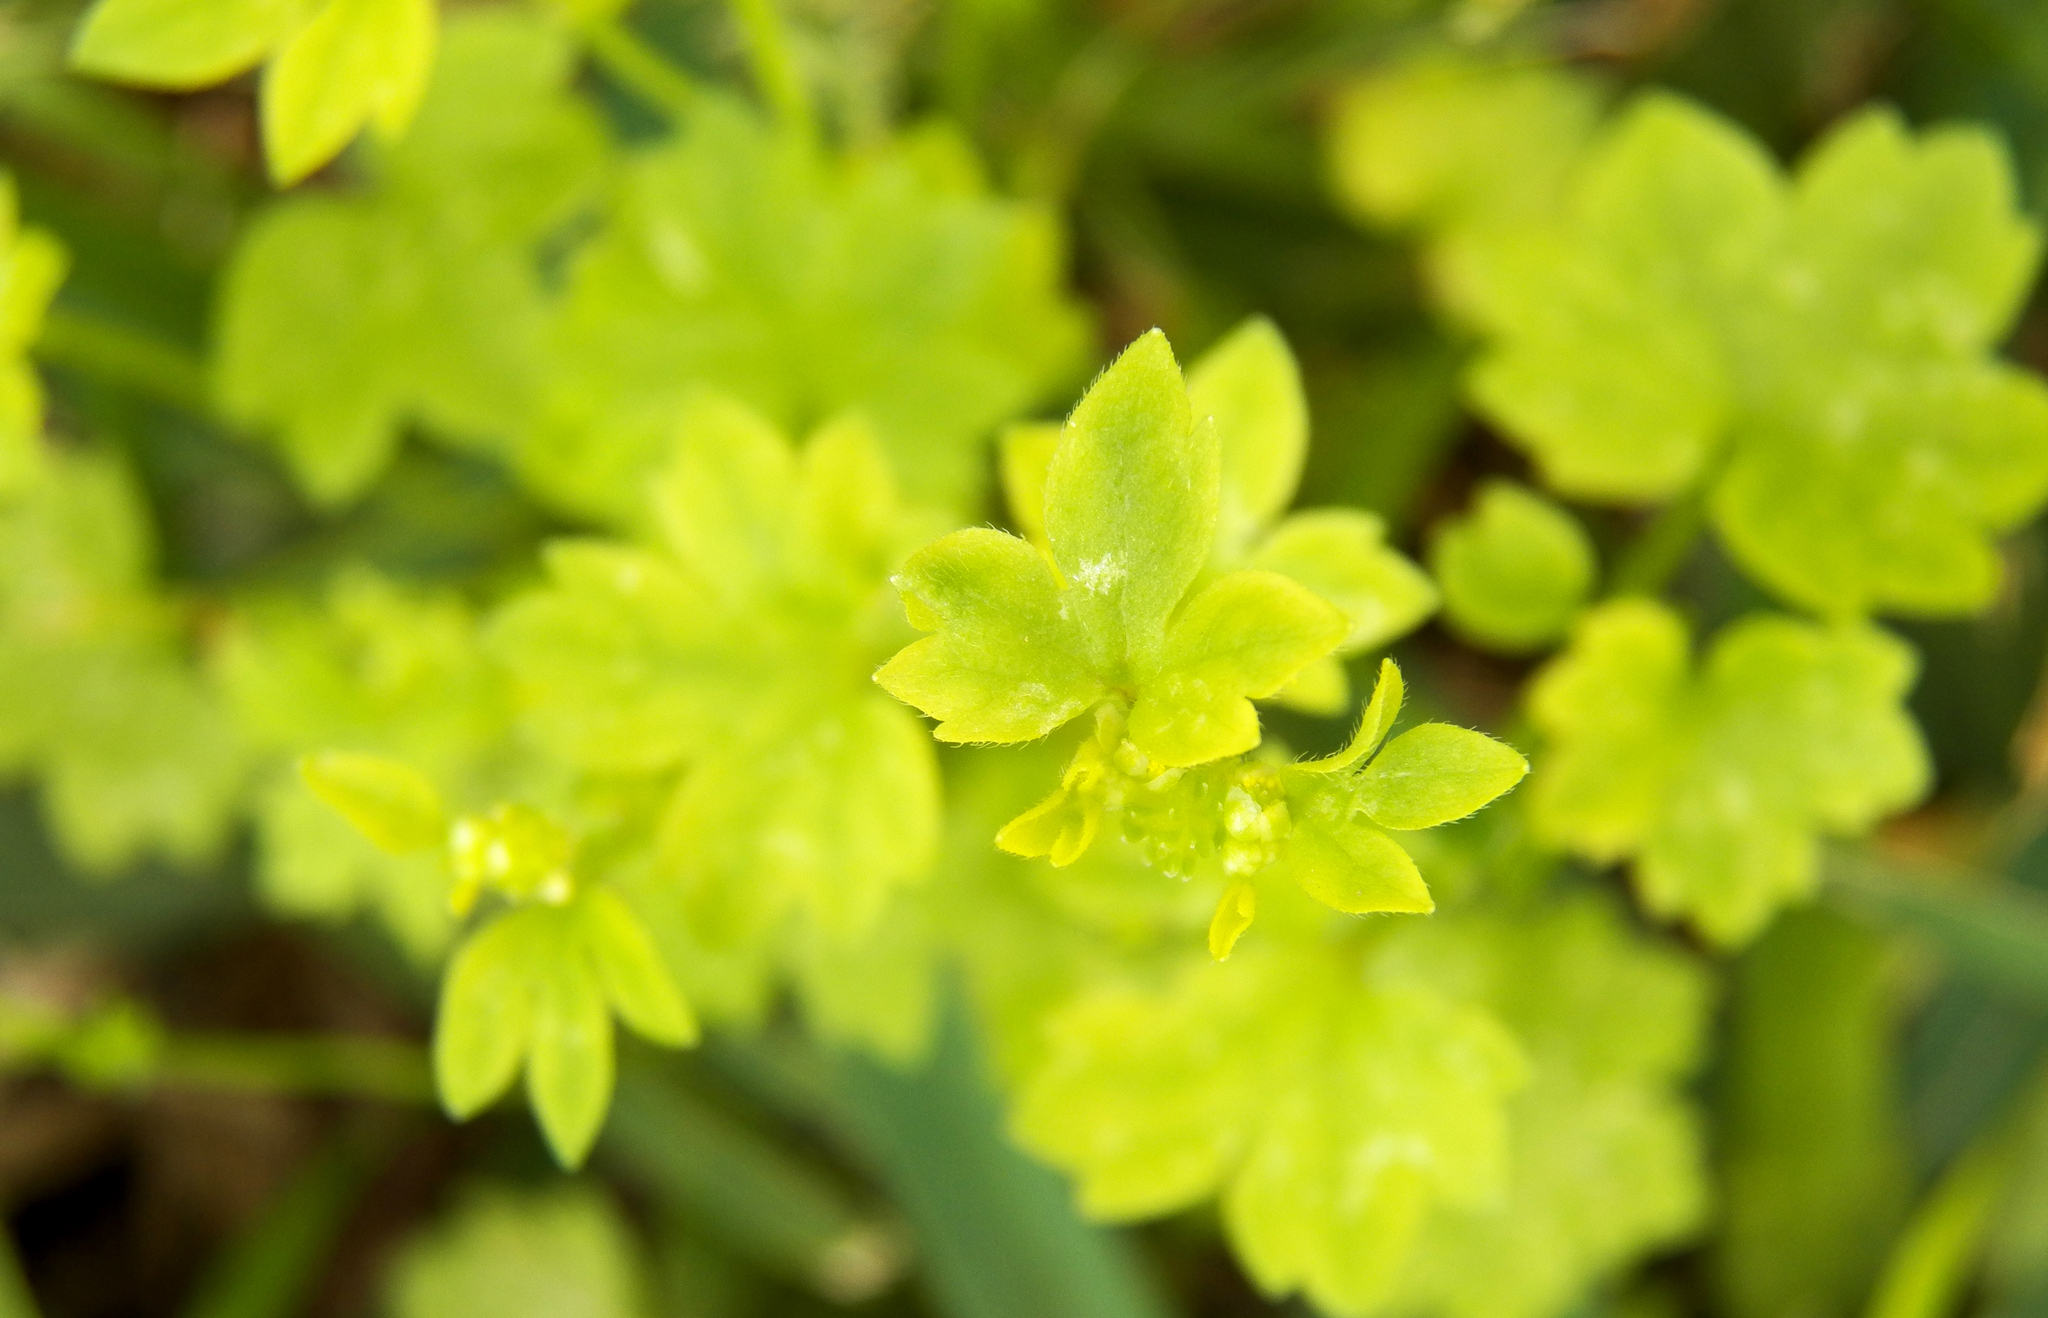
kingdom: Plantae
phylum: Tracheophyta
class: Magnoliopsida
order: Ranunculales
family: Ranunculaceae
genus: Ranunculus
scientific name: Ranunculus platensis
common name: Prairie buttercup
